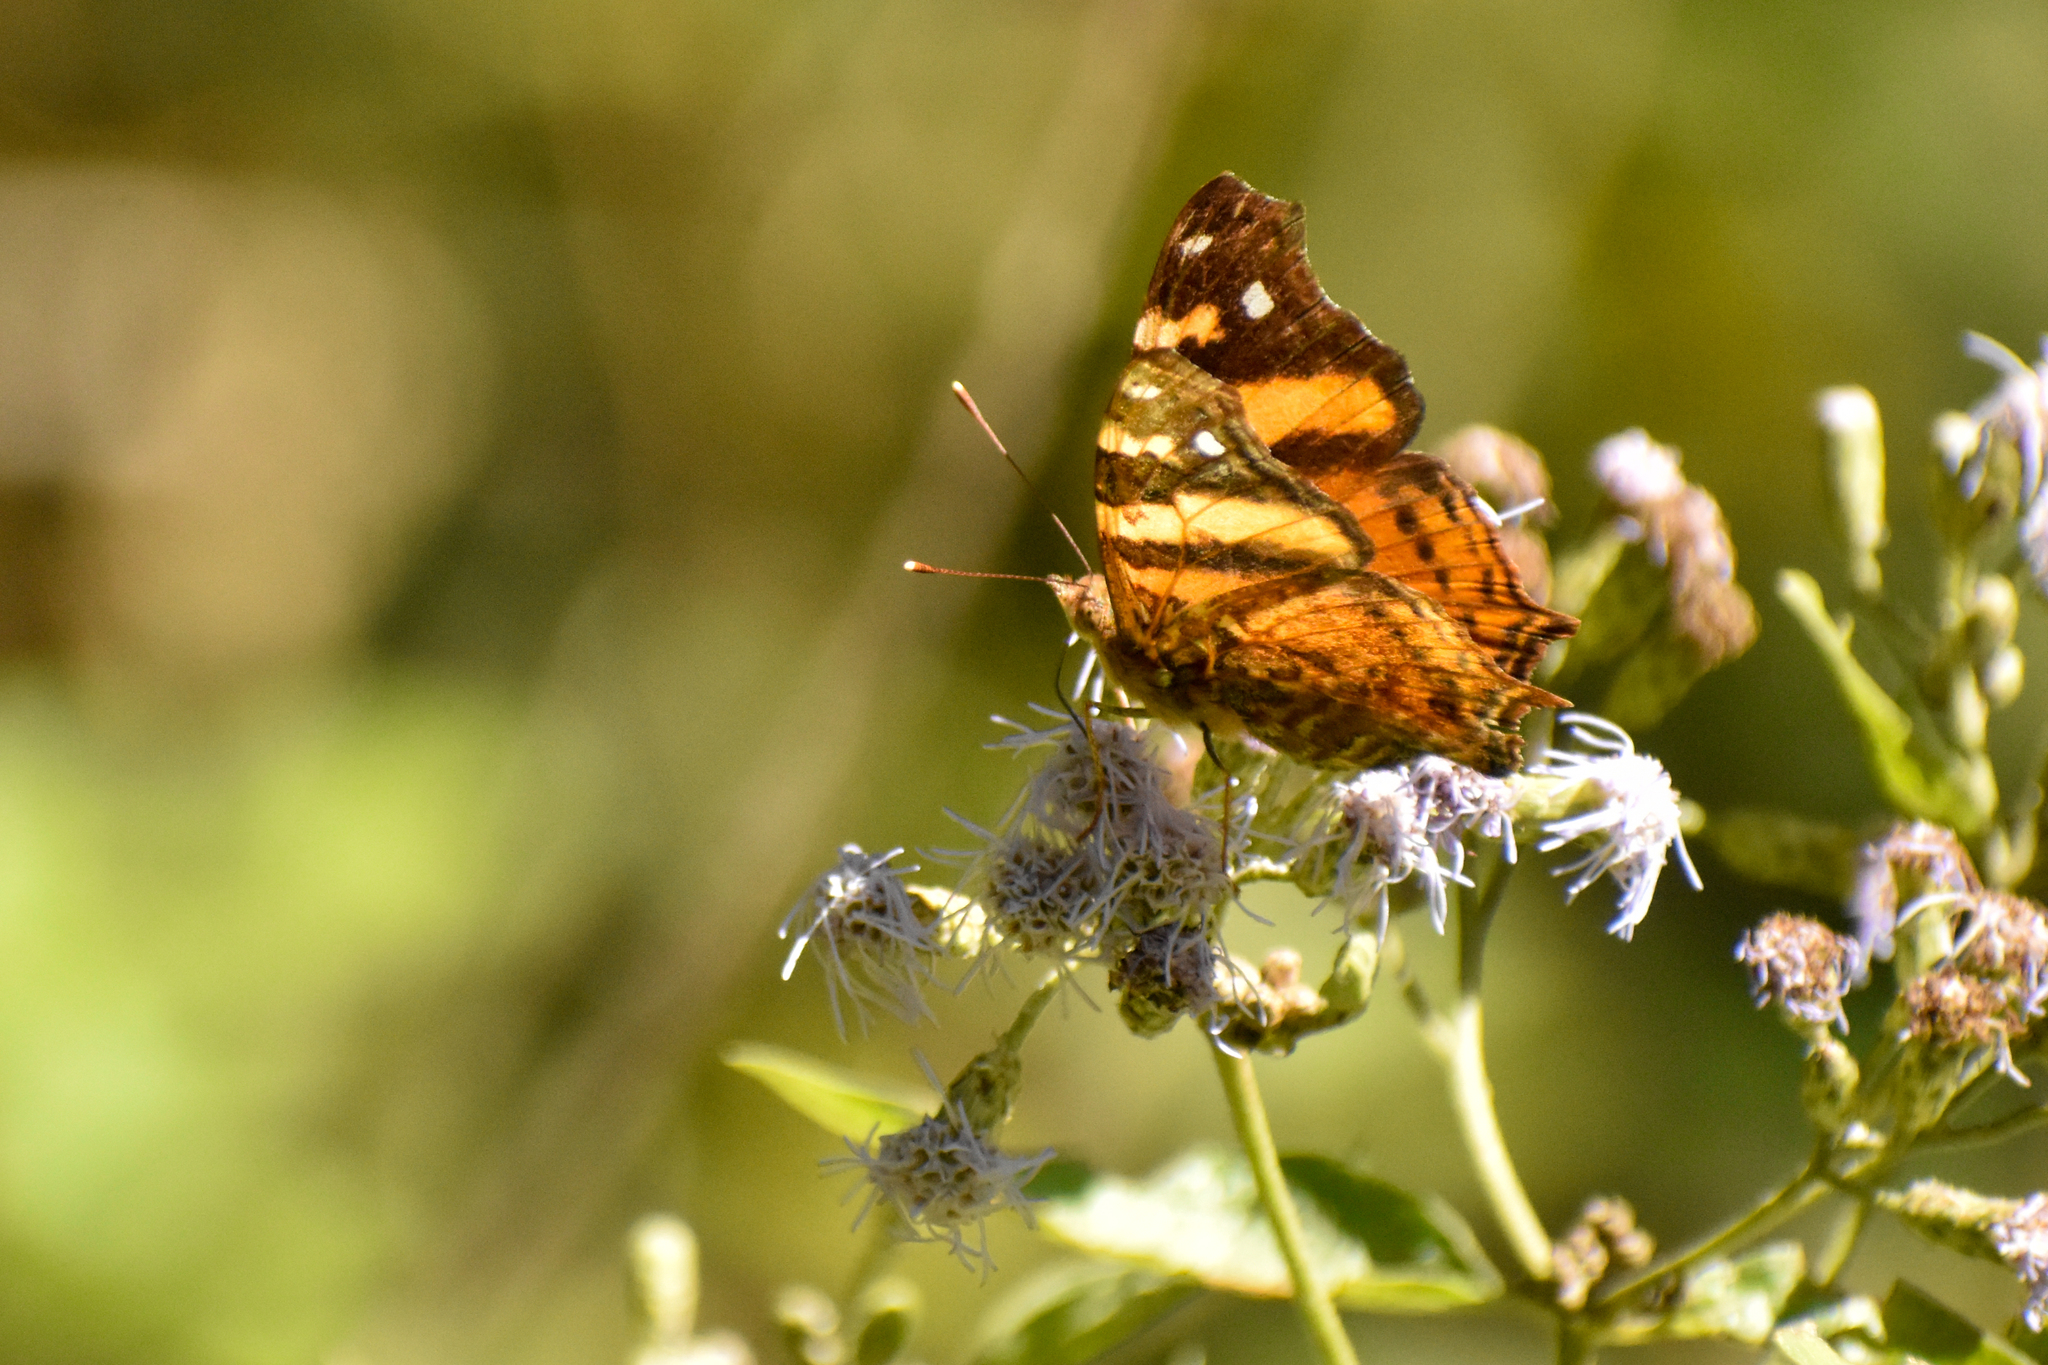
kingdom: Animalia
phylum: Arthropoda
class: Insecta
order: Lepidoptera
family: Nymphalidae
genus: Hypanartia
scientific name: Hypanartia bella
